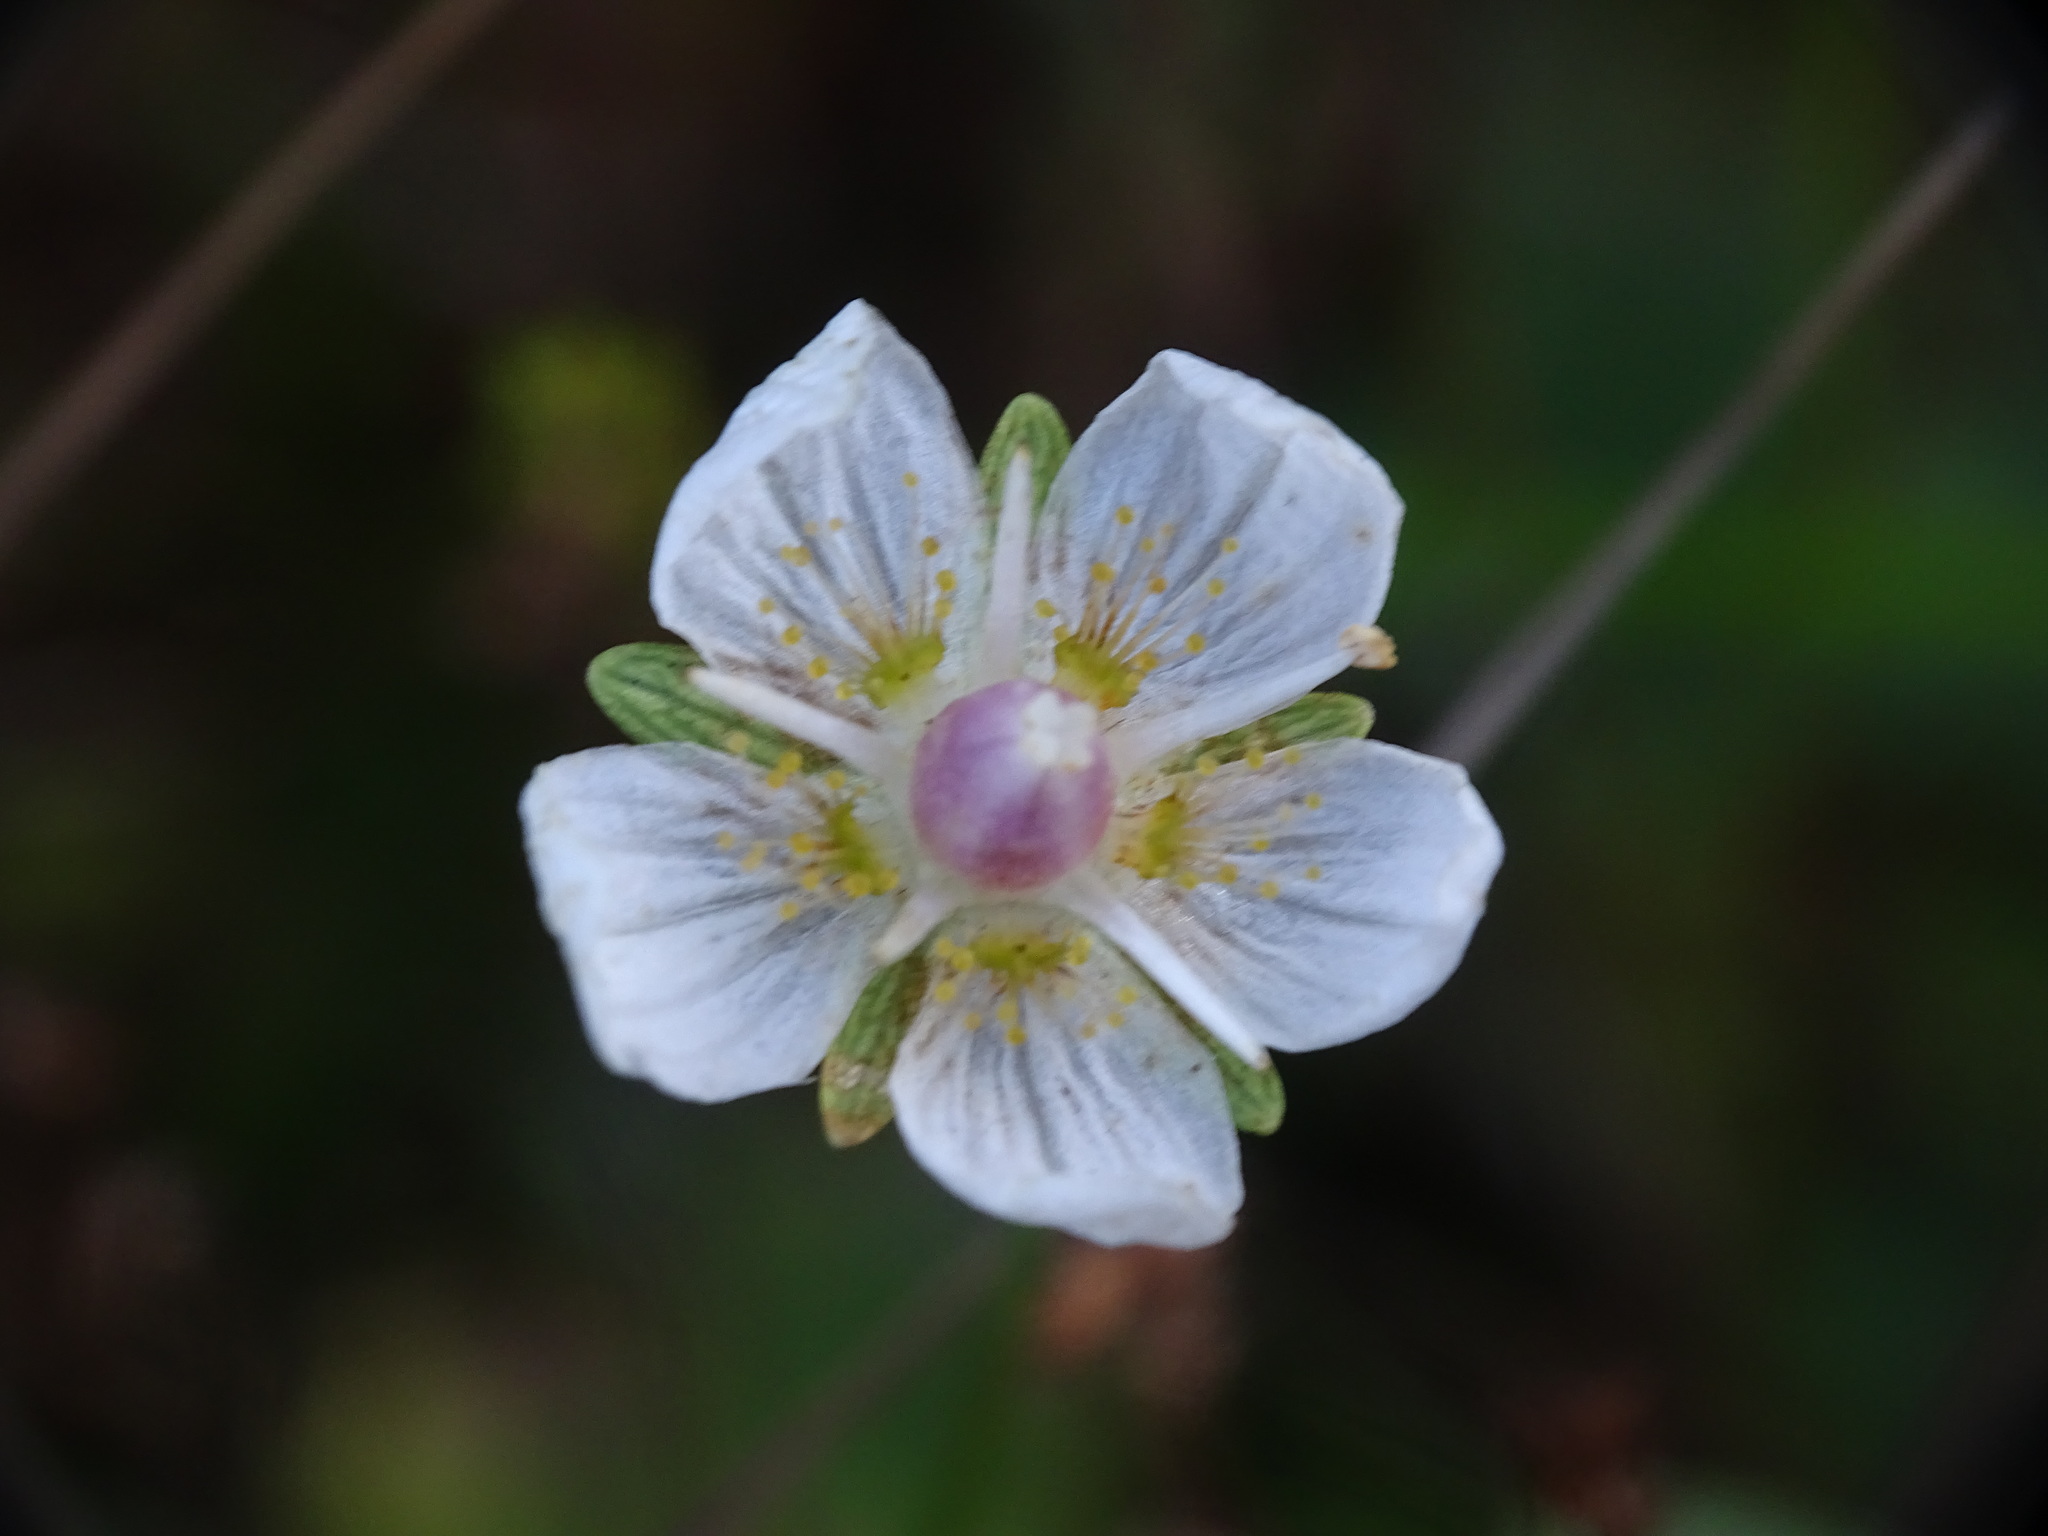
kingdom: Plantae
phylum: Tracheophyta
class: Magnoliopsida
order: Celastrales
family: Parnassiaceae
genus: Parnassia
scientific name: Parnassia palustris
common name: Grass-of-parnassus
